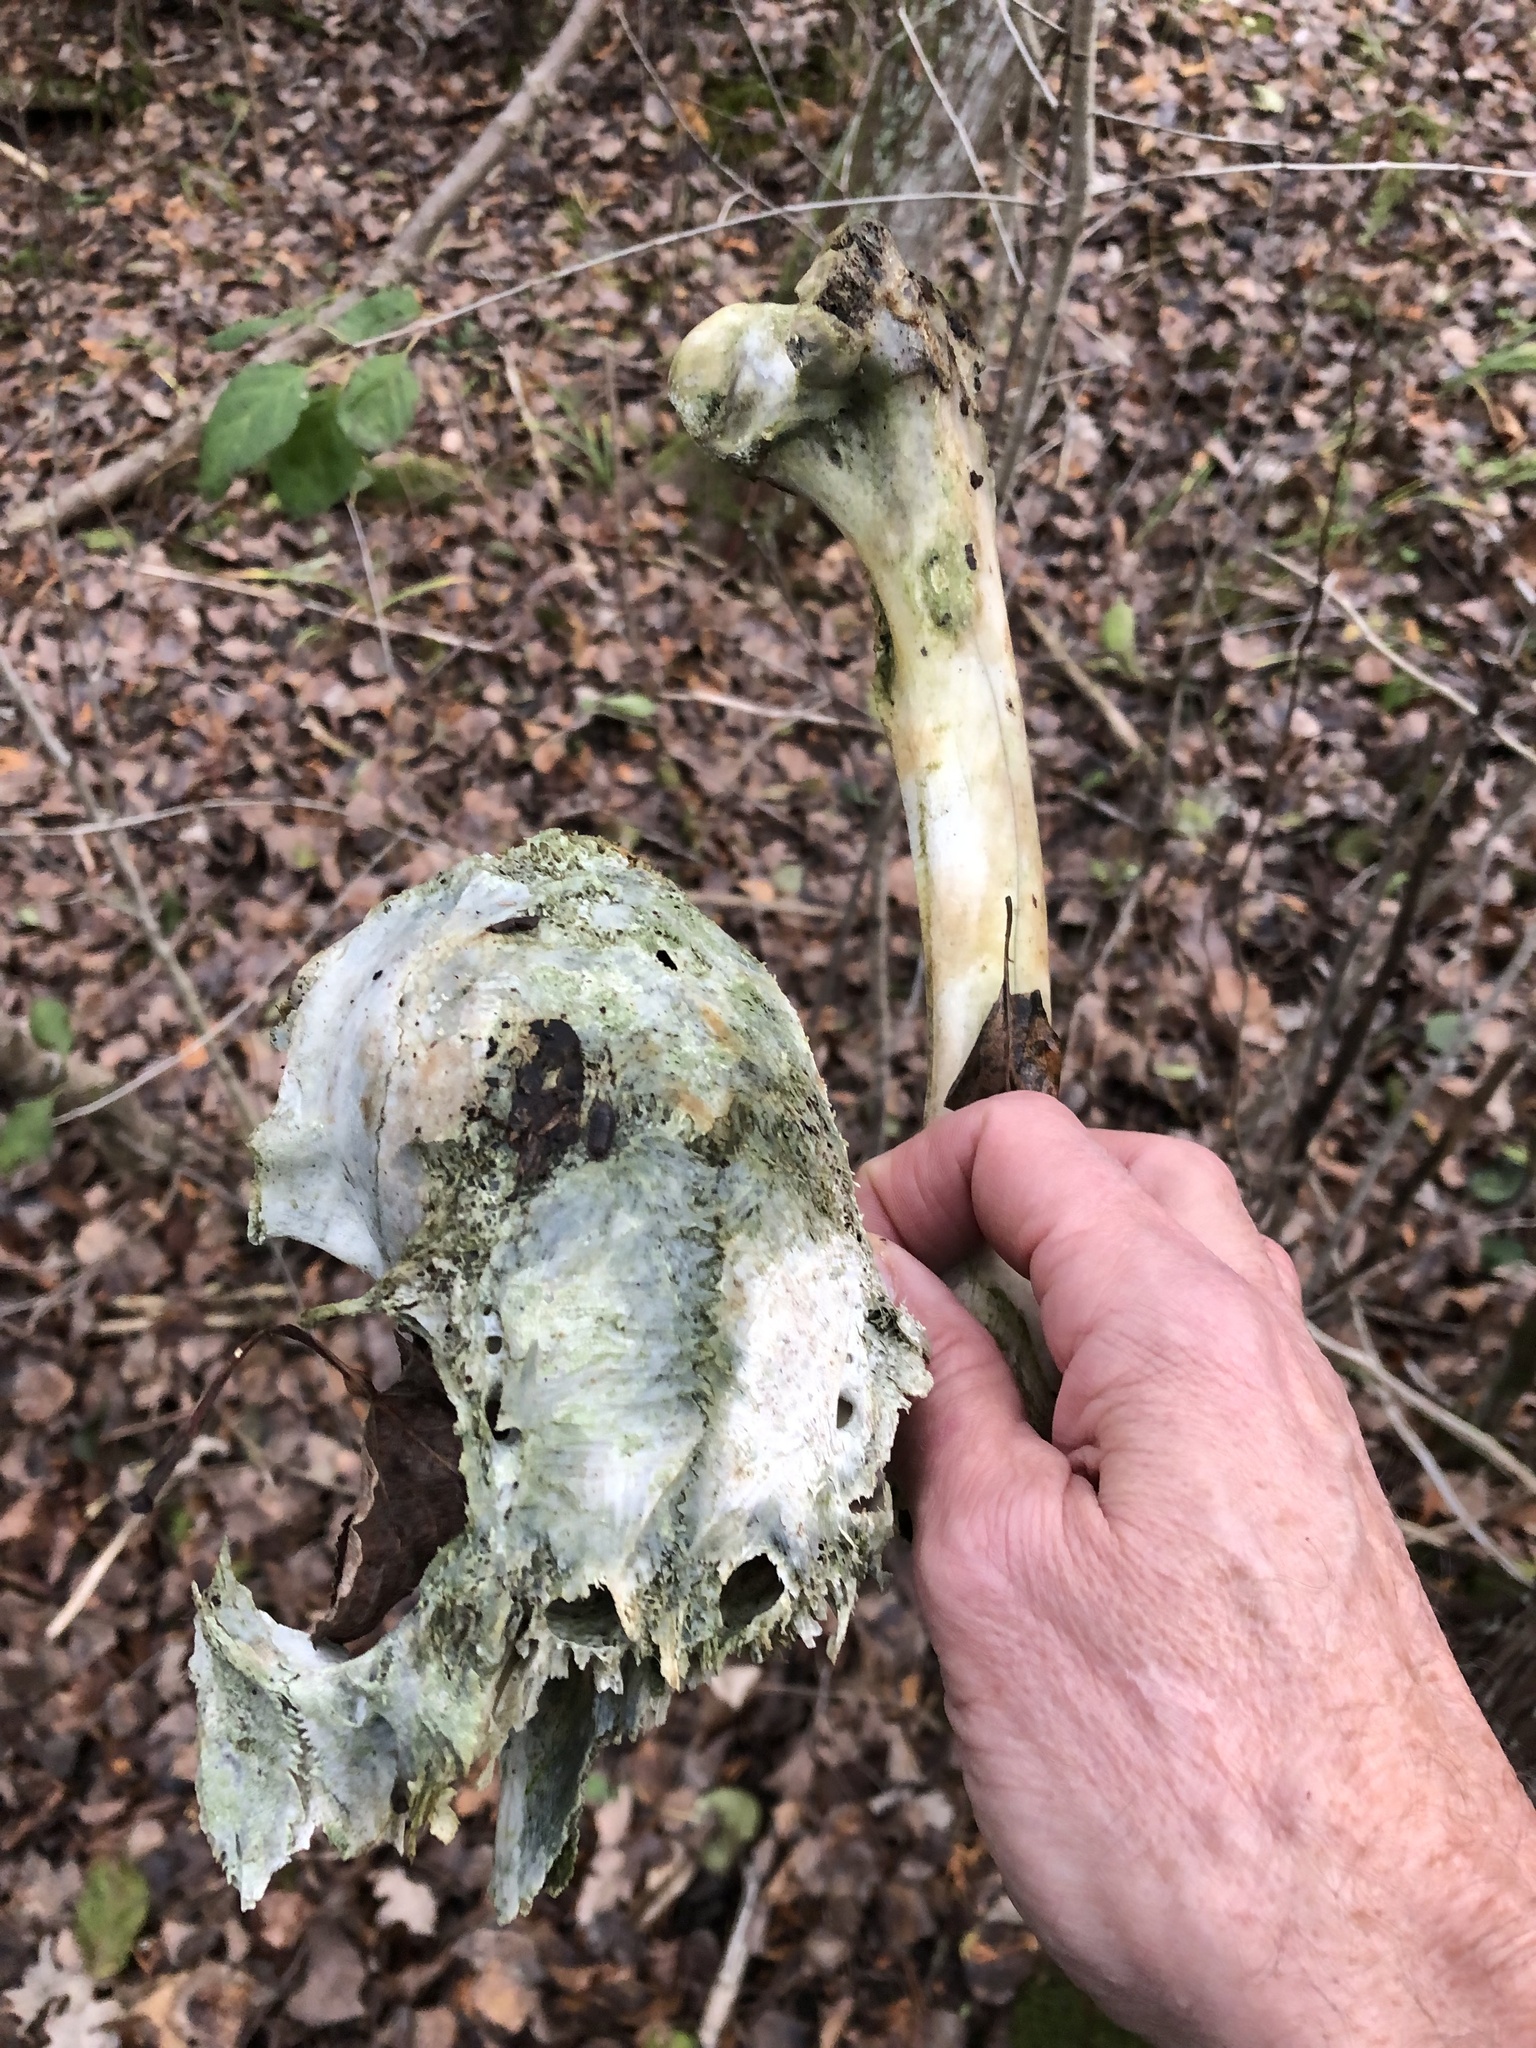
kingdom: Animalia
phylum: Chordata
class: Mammalia
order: Artiodactyla
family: Cervidae
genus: Odocoileus
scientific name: Odocoileus virginianus
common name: White-tailed deer
